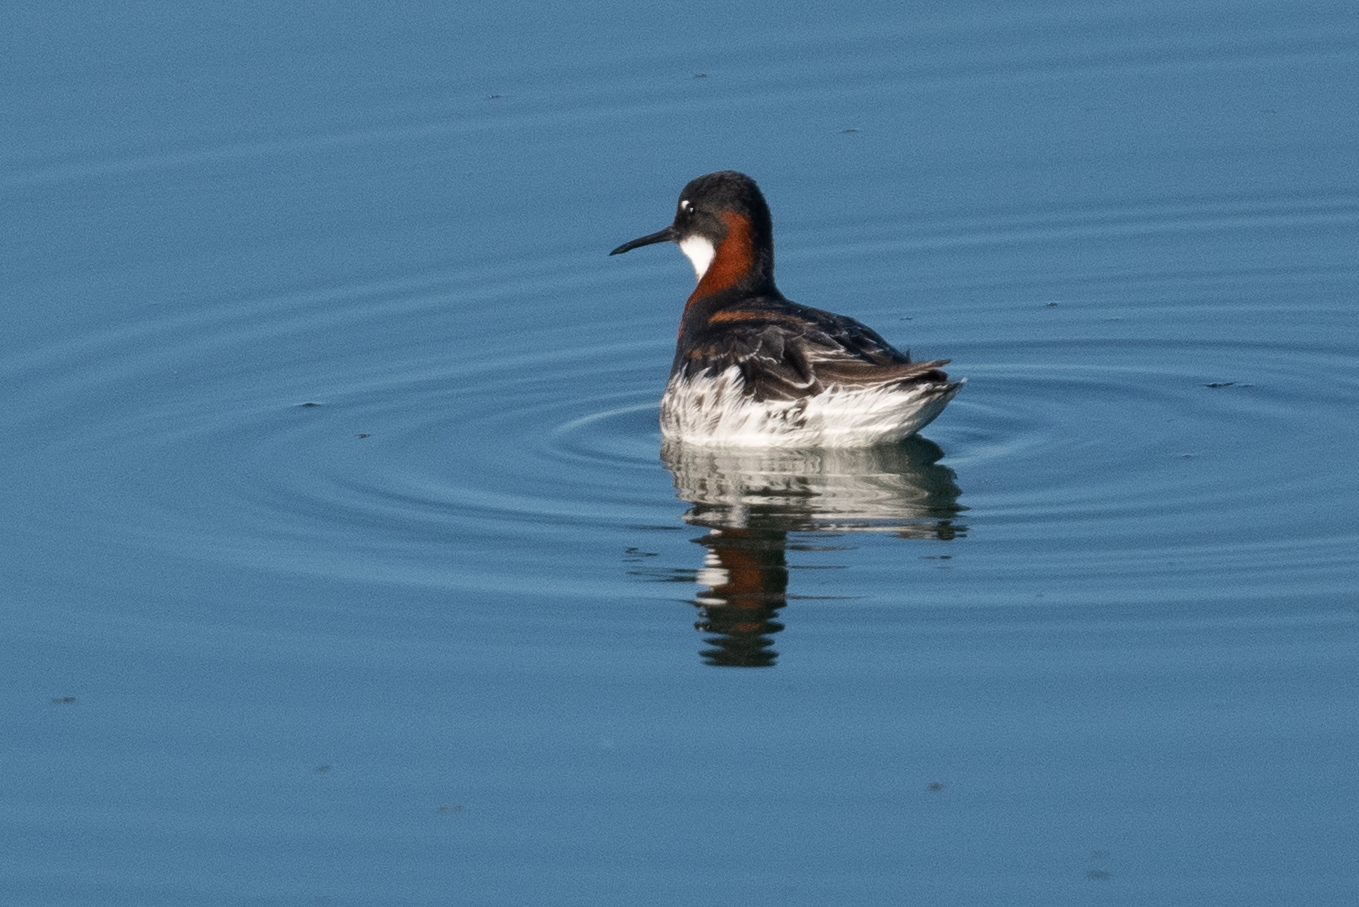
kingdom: Animalia
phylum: Chordata
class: Aves
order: Charadriiformes
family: Scolopacidae
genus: Phalaropus
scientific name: Phalaropus lobatus
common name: Red-necked phalarope
